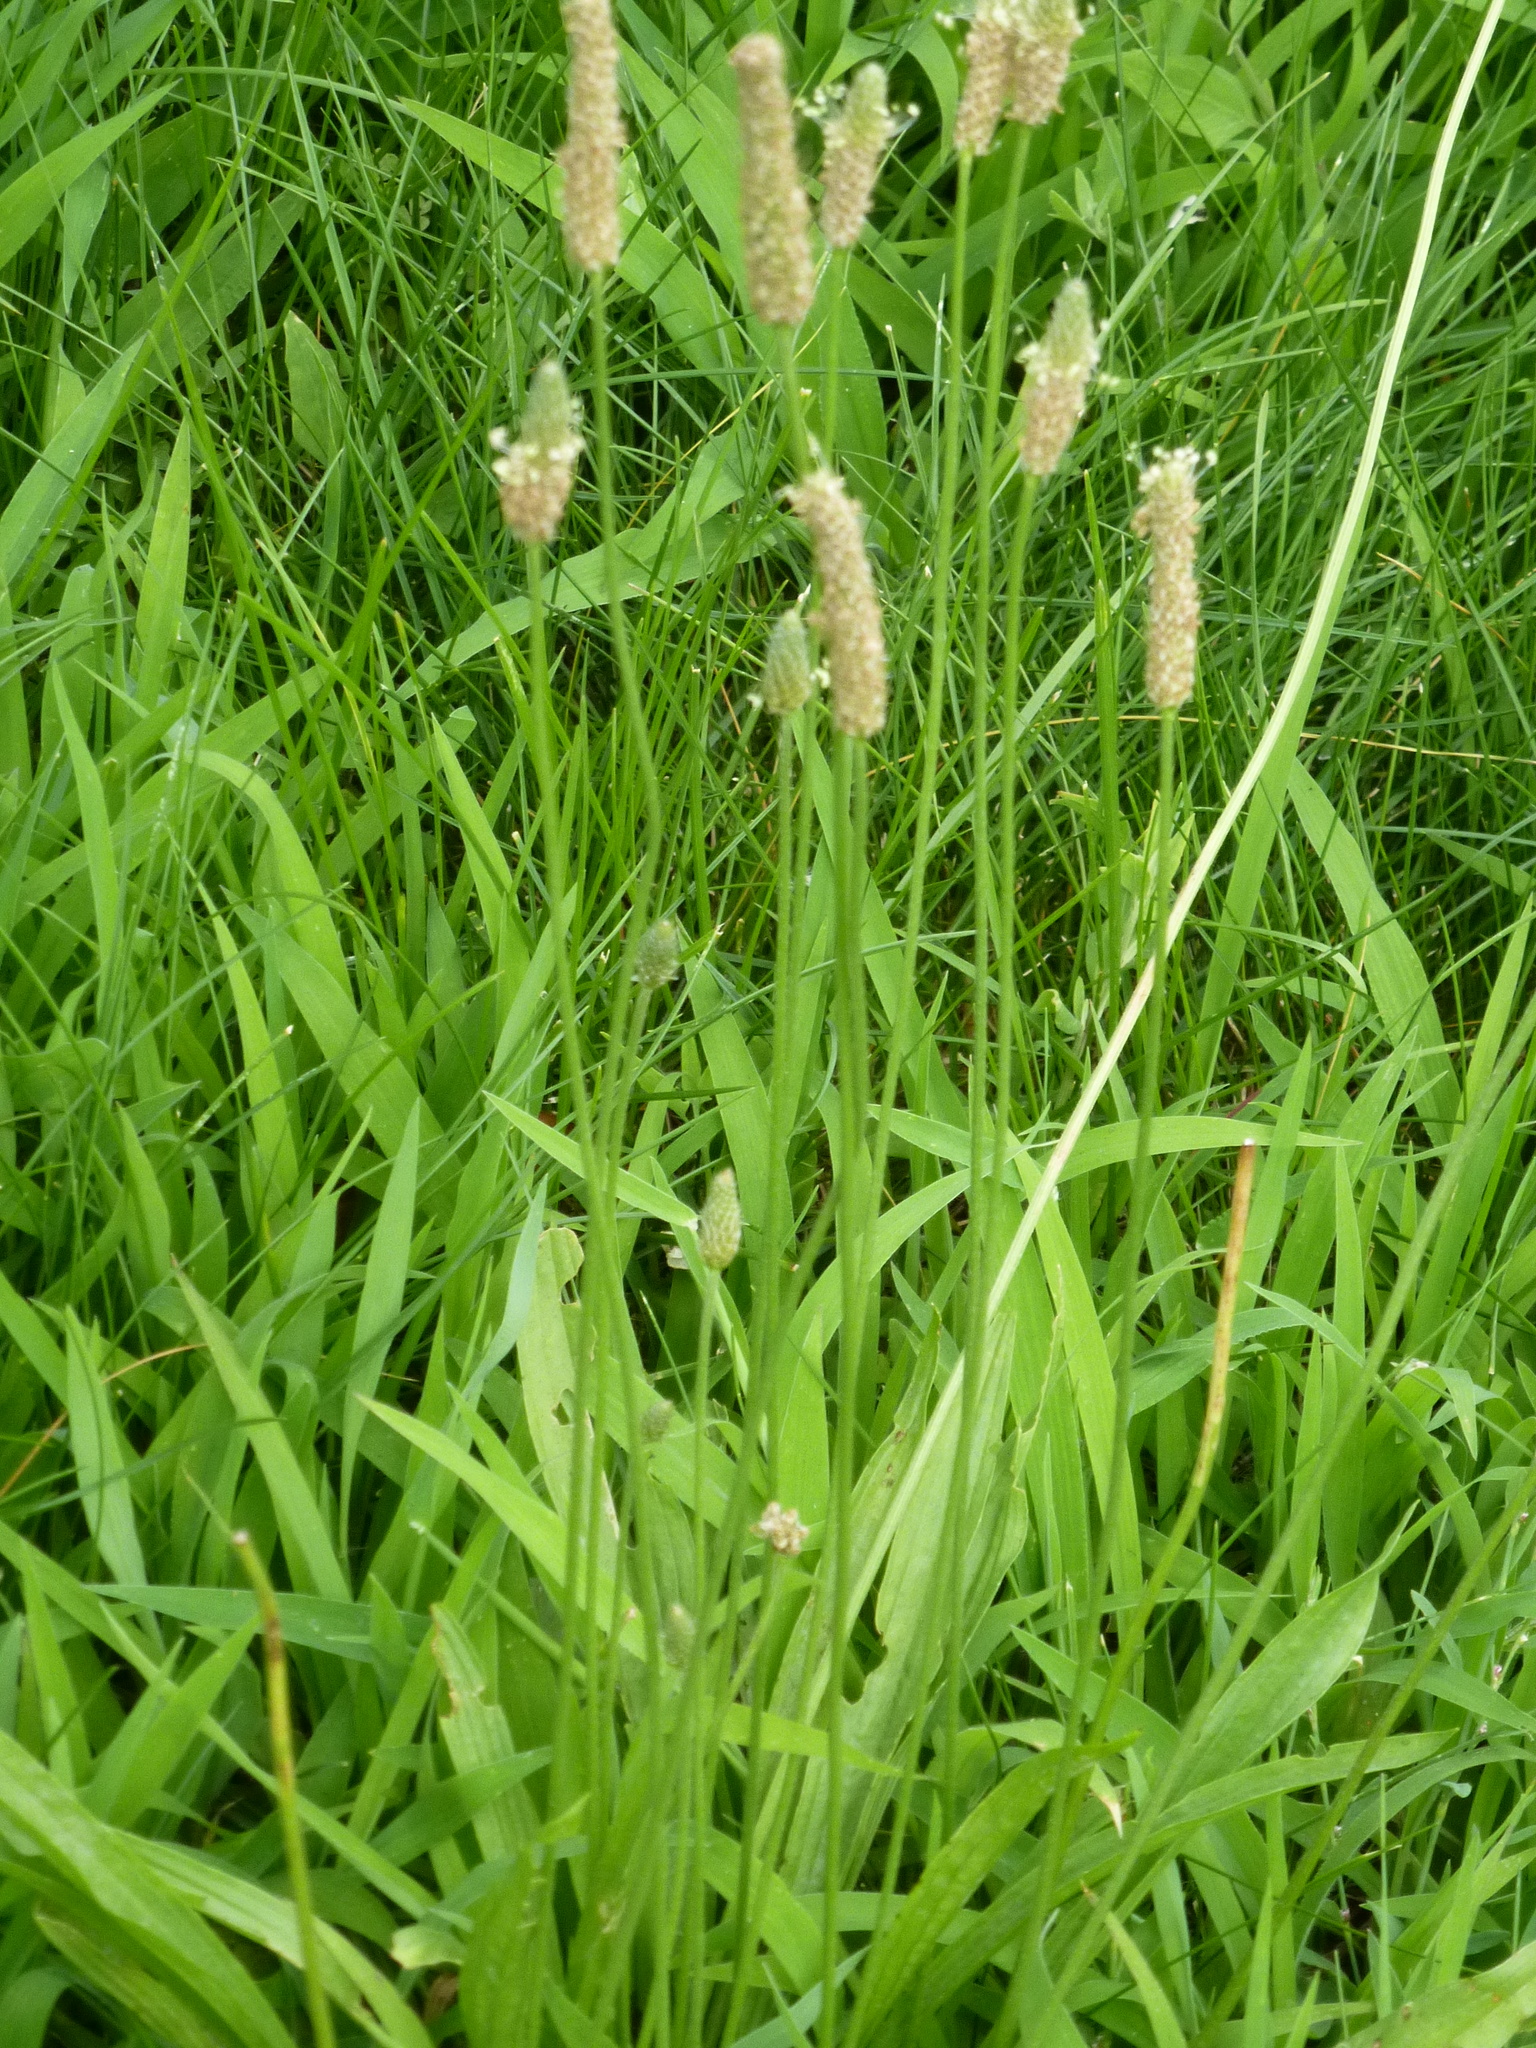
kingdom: Plantae
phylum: Tracheophyta
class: Magnoliopsida
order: Lamiales
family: Plantaginaceae
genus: Plantago
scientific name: Plantago lanceolata
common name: Ribwort plantain
